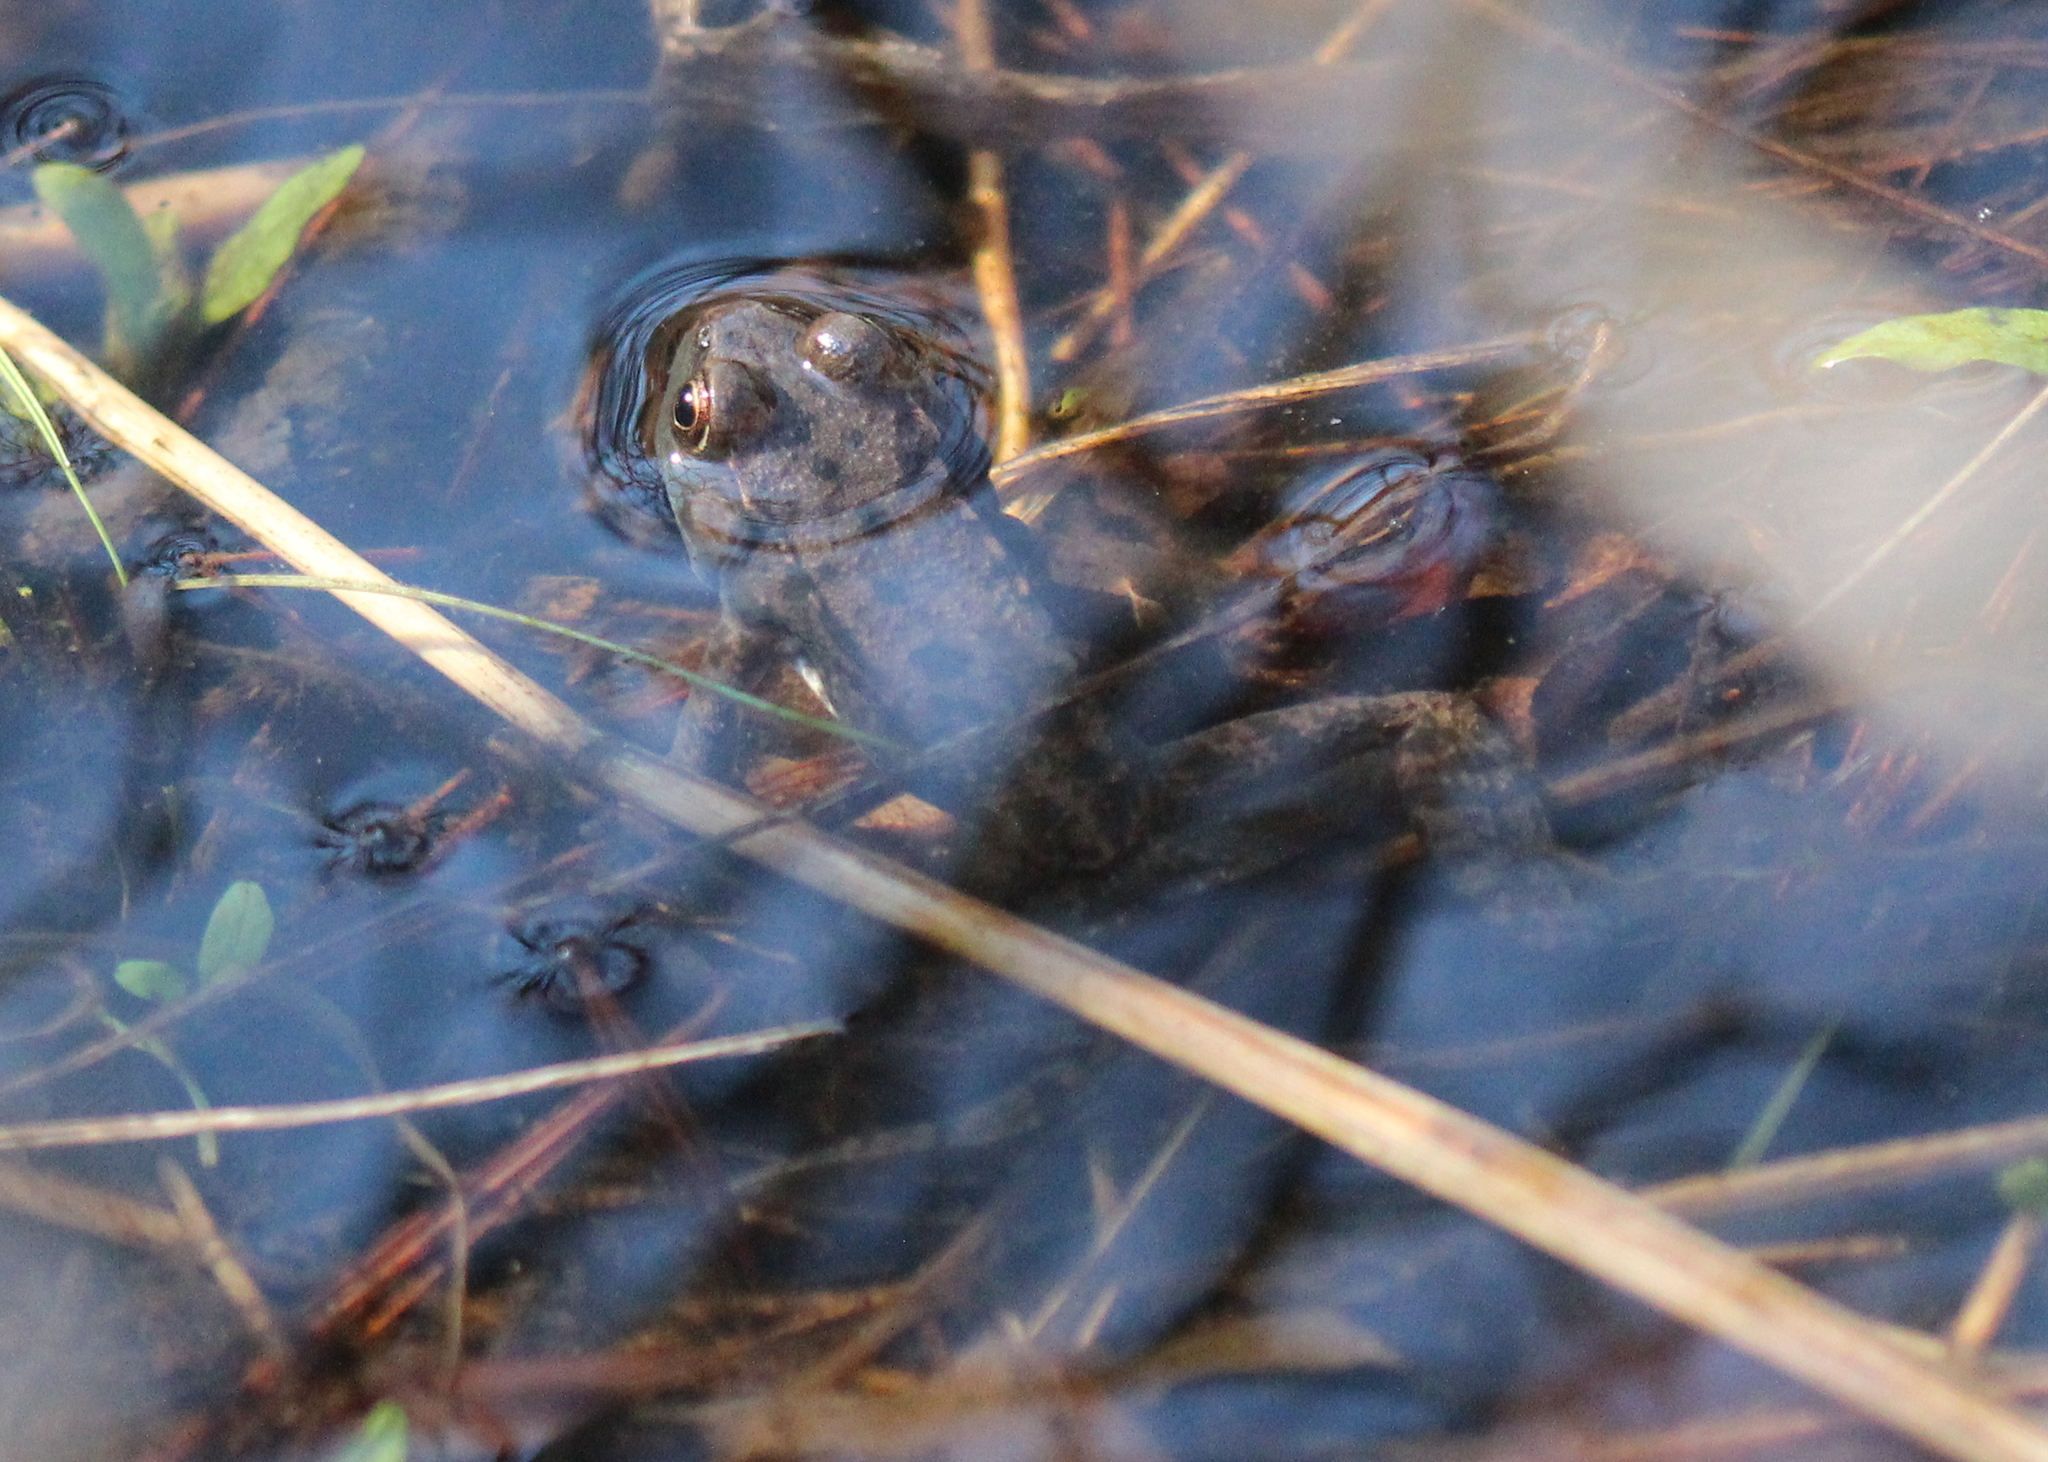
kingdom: Animalia
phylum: Chordata
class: Amphibia
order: Anura
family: Ranidae
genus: Lithobates
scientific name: Lithobates clamitans
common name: Green frog
